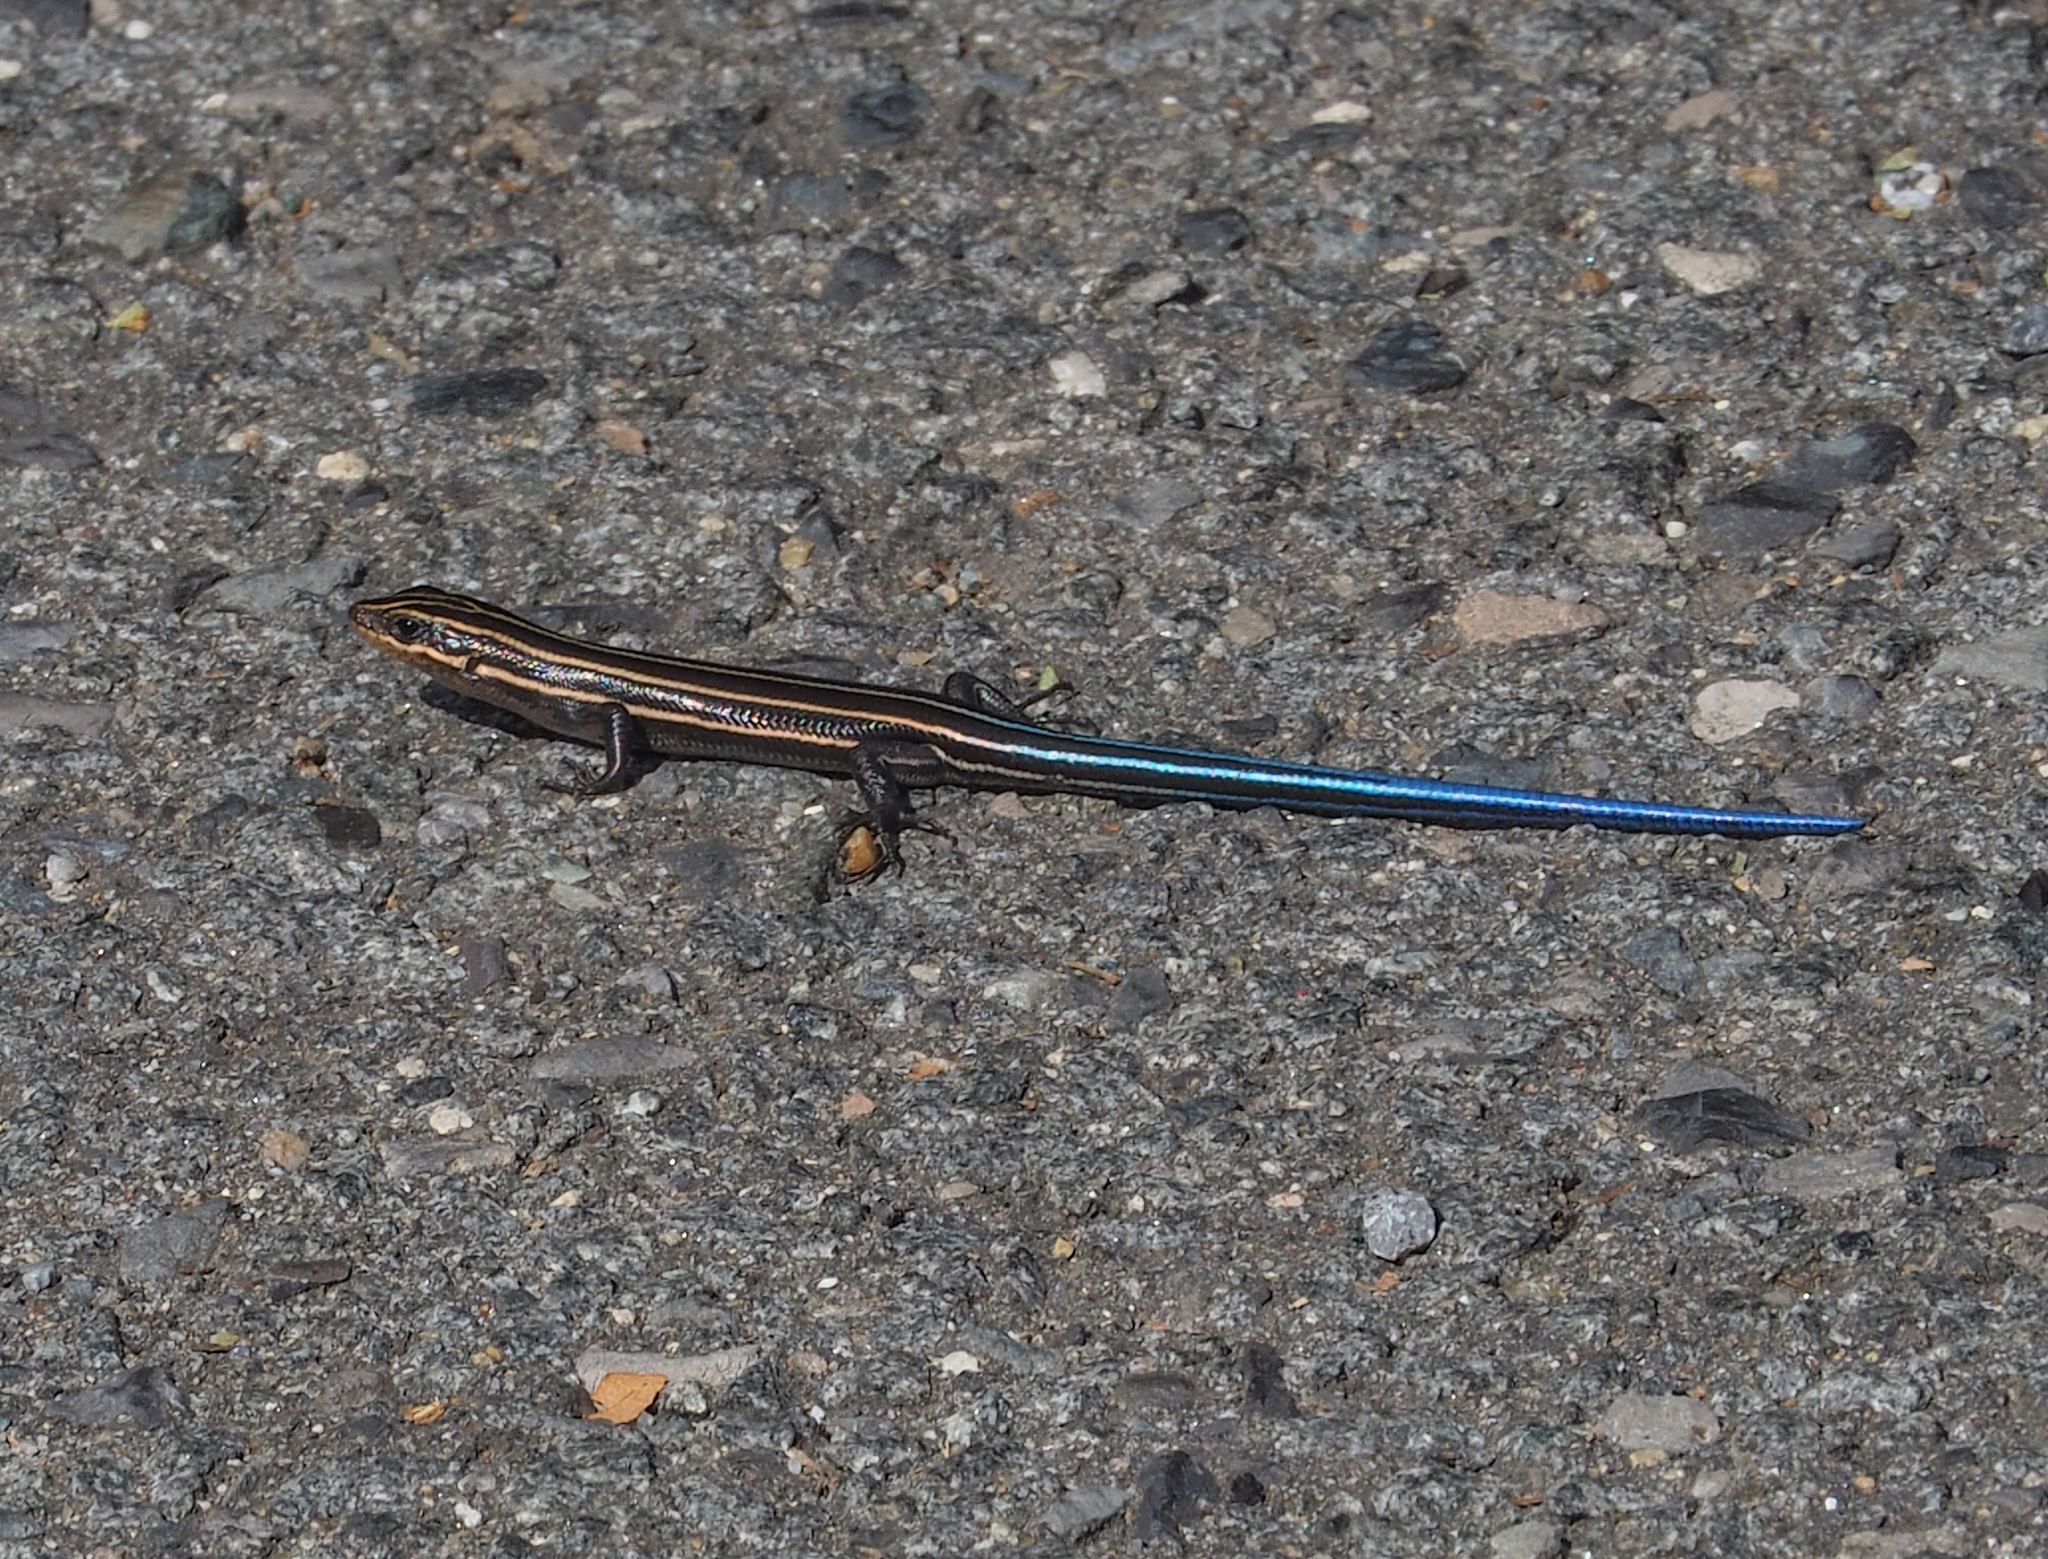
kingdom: Animalia
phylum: Chordata
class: Squamata
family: Scincidae
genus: Plestiodon
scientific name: Plestiodon fasciatus
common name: Five-lined skink
